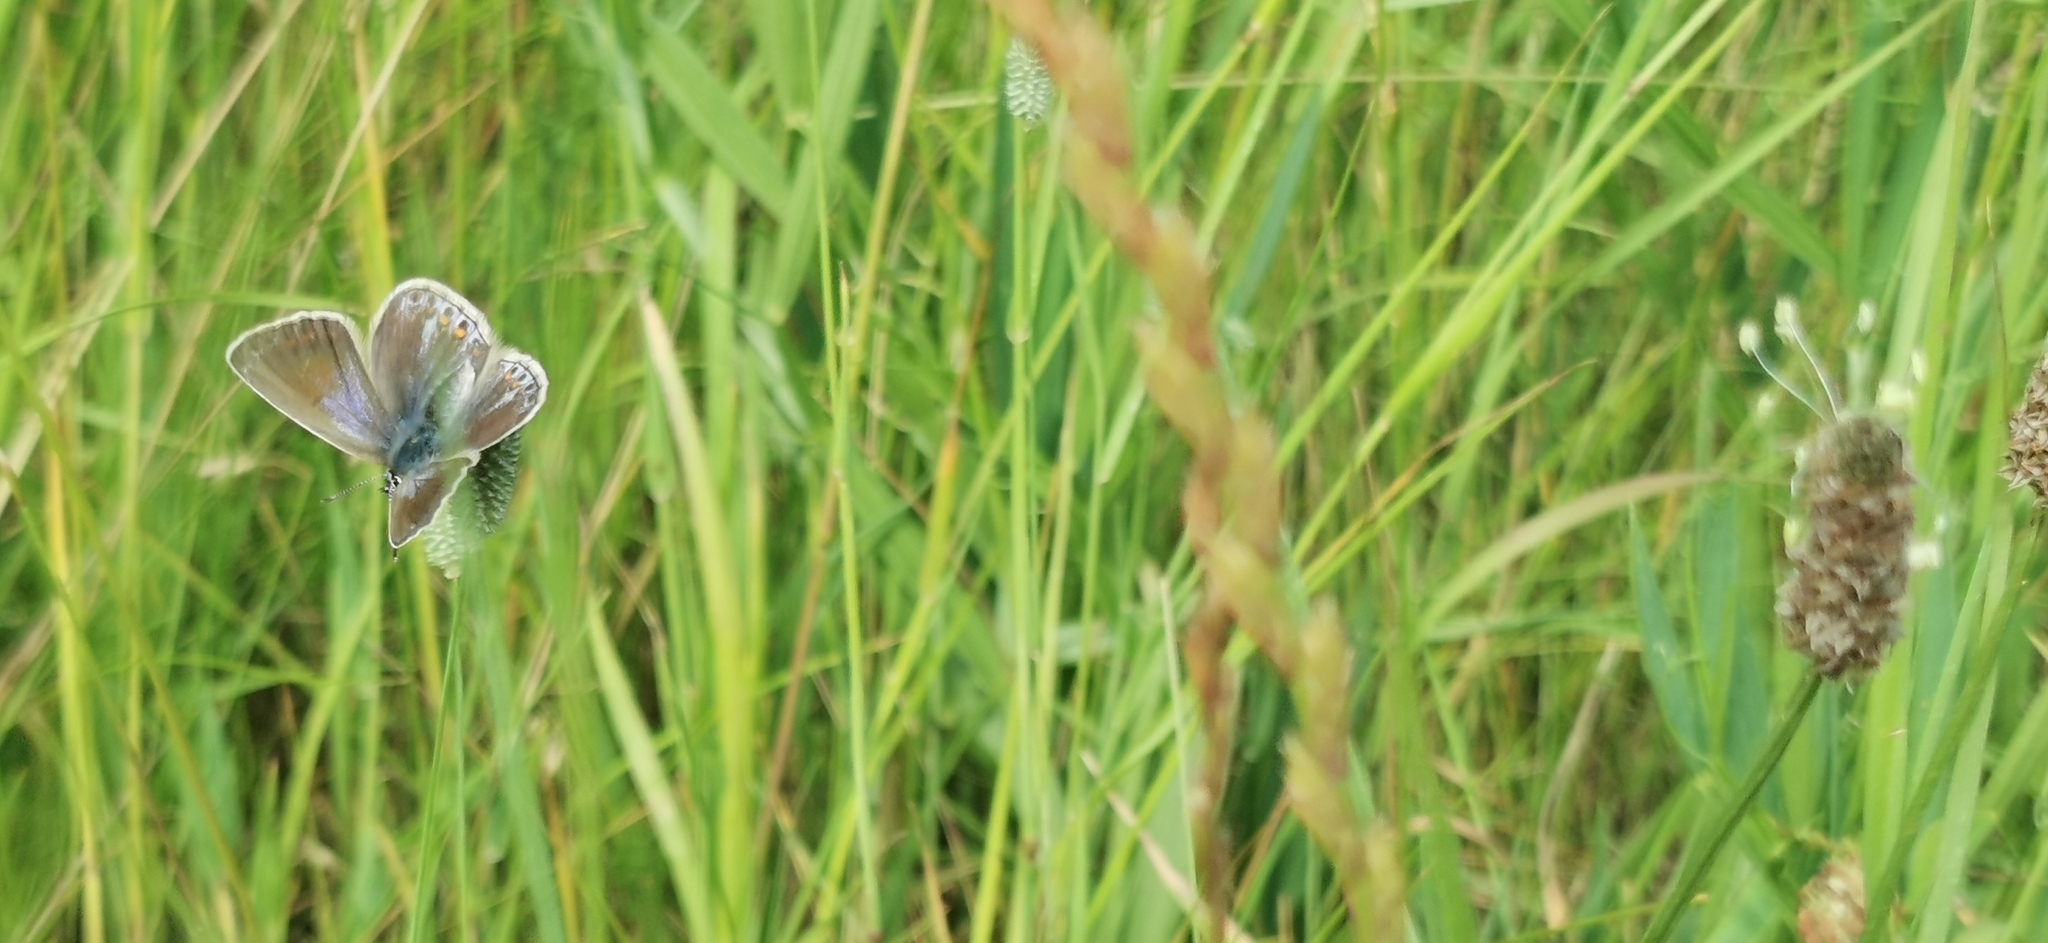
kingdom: Animalia
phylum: Arthropoda
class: Insecta
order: Lepidoptera
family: Lycaenidae
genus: Polyommatus
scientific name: Polyommatus icarus
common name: Common blue
